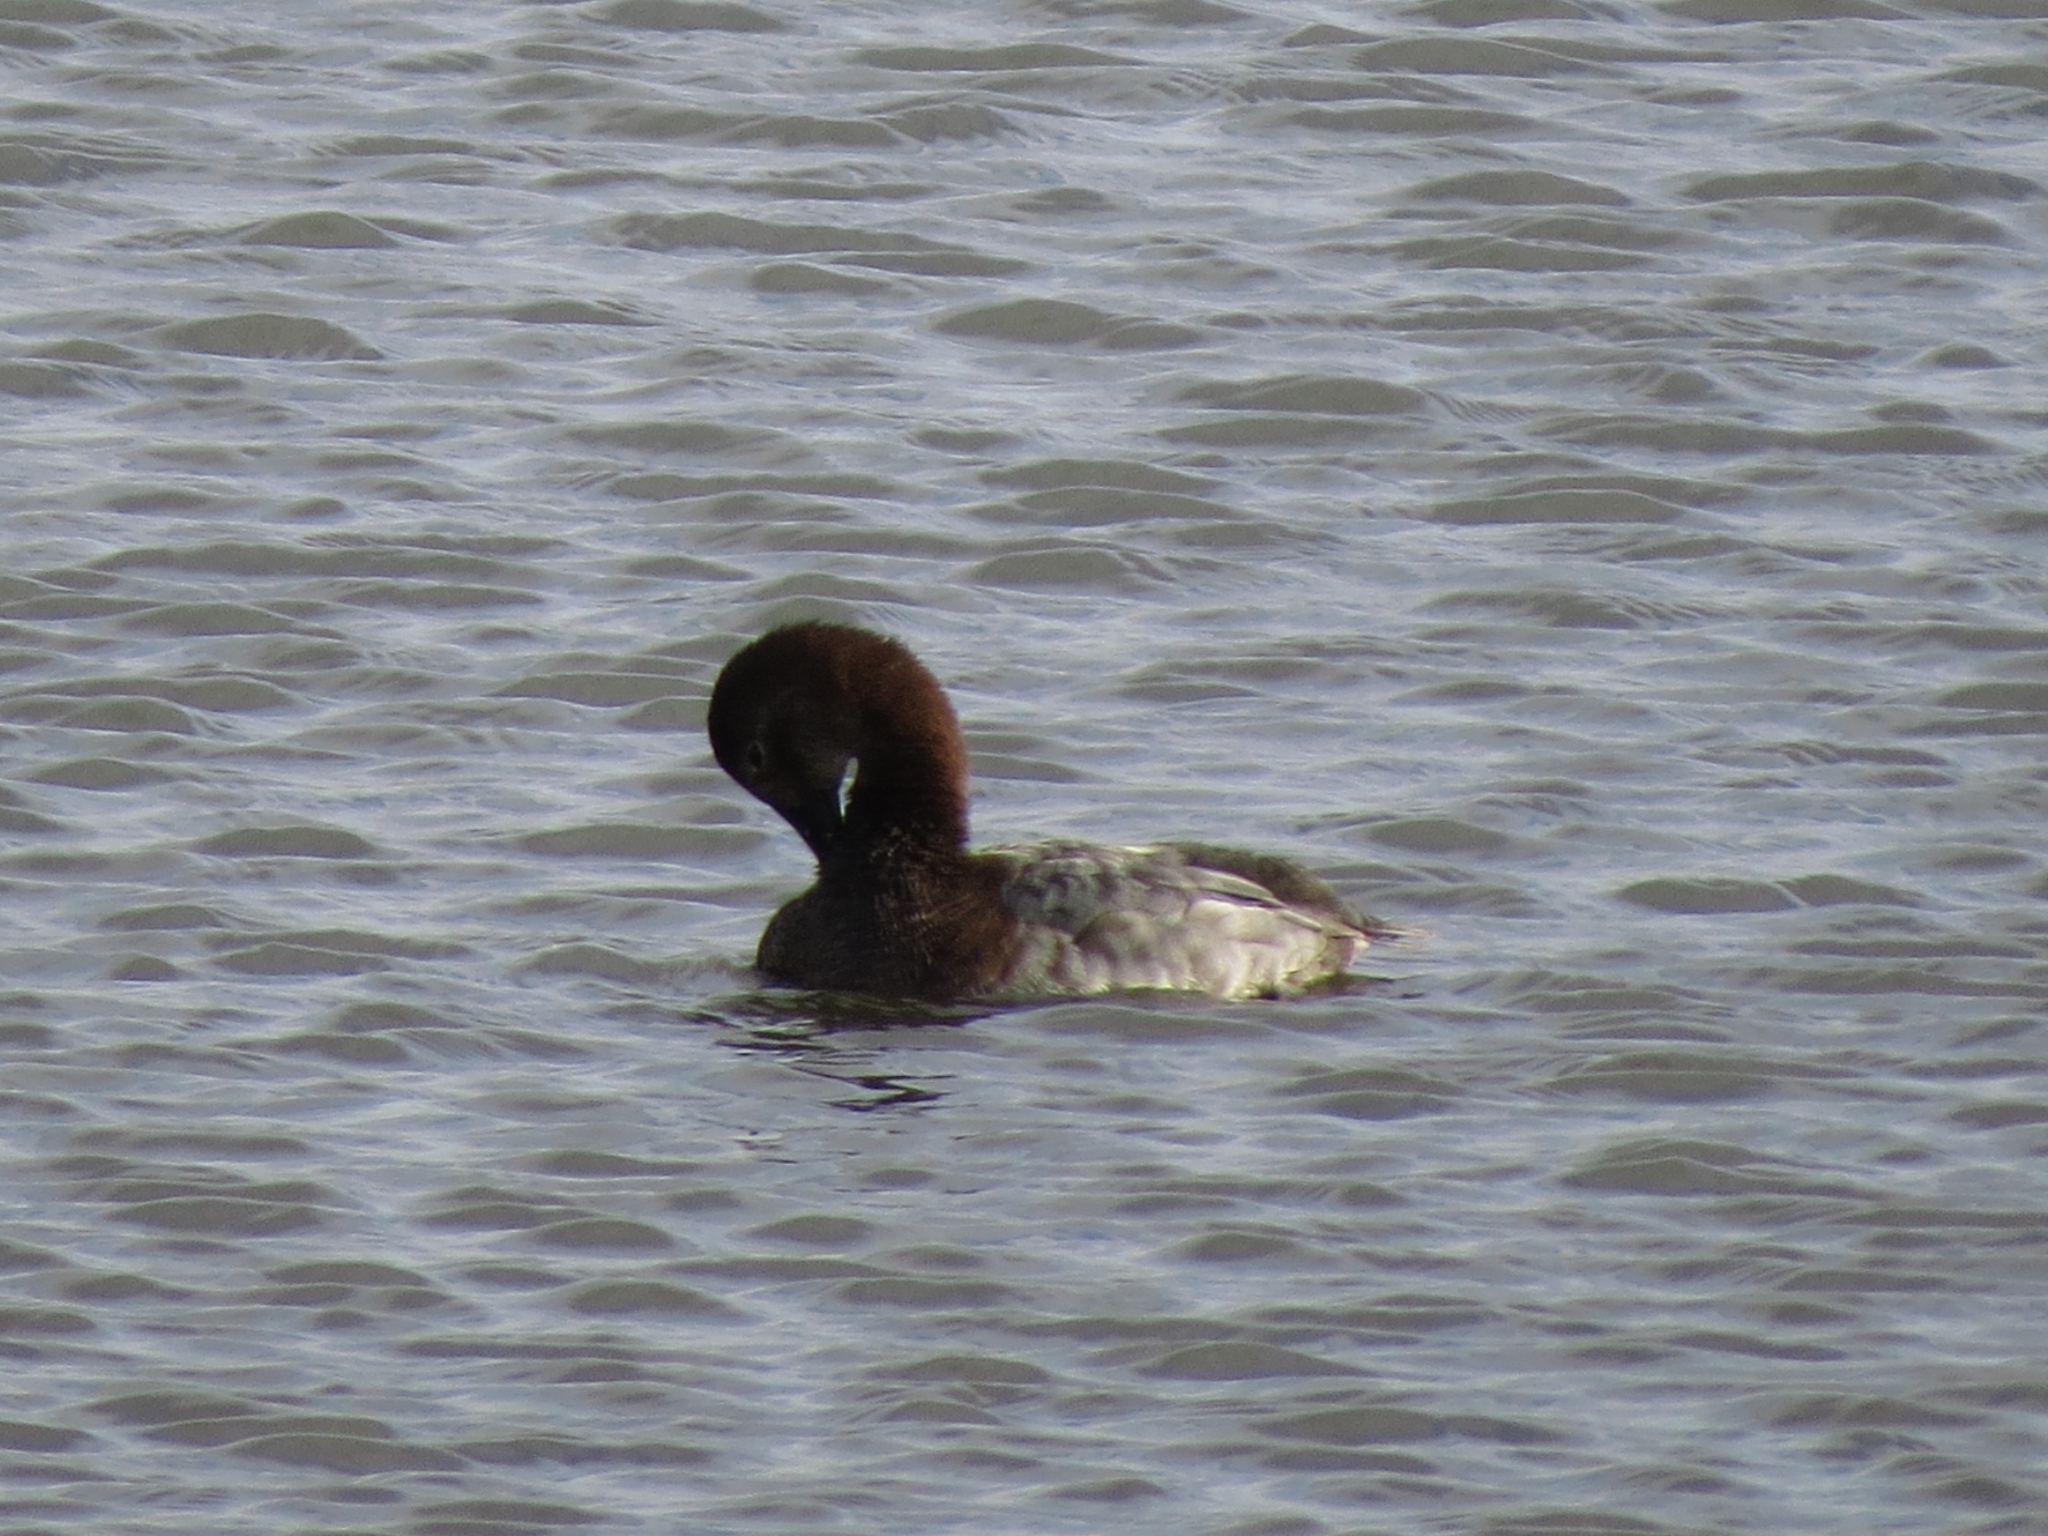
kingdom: Animalia
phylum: Chordata
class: Aves
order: Anseriformes
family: Anatidae
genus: Aythya
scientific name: Aythya ferina
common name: Common pochard
